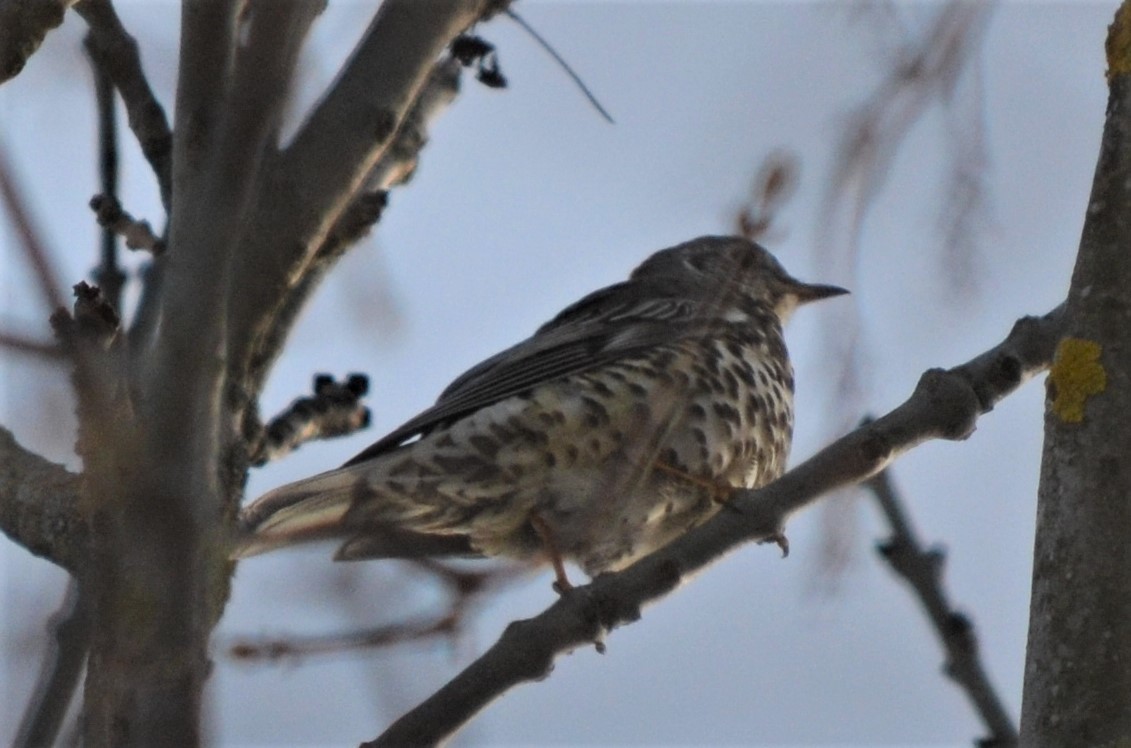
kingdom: Animalia
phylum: Chordata
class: Aves
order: Passeriformes
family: Turdidae
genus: Turdus
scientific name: Turdus viscivorus
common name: Mistle thrush
